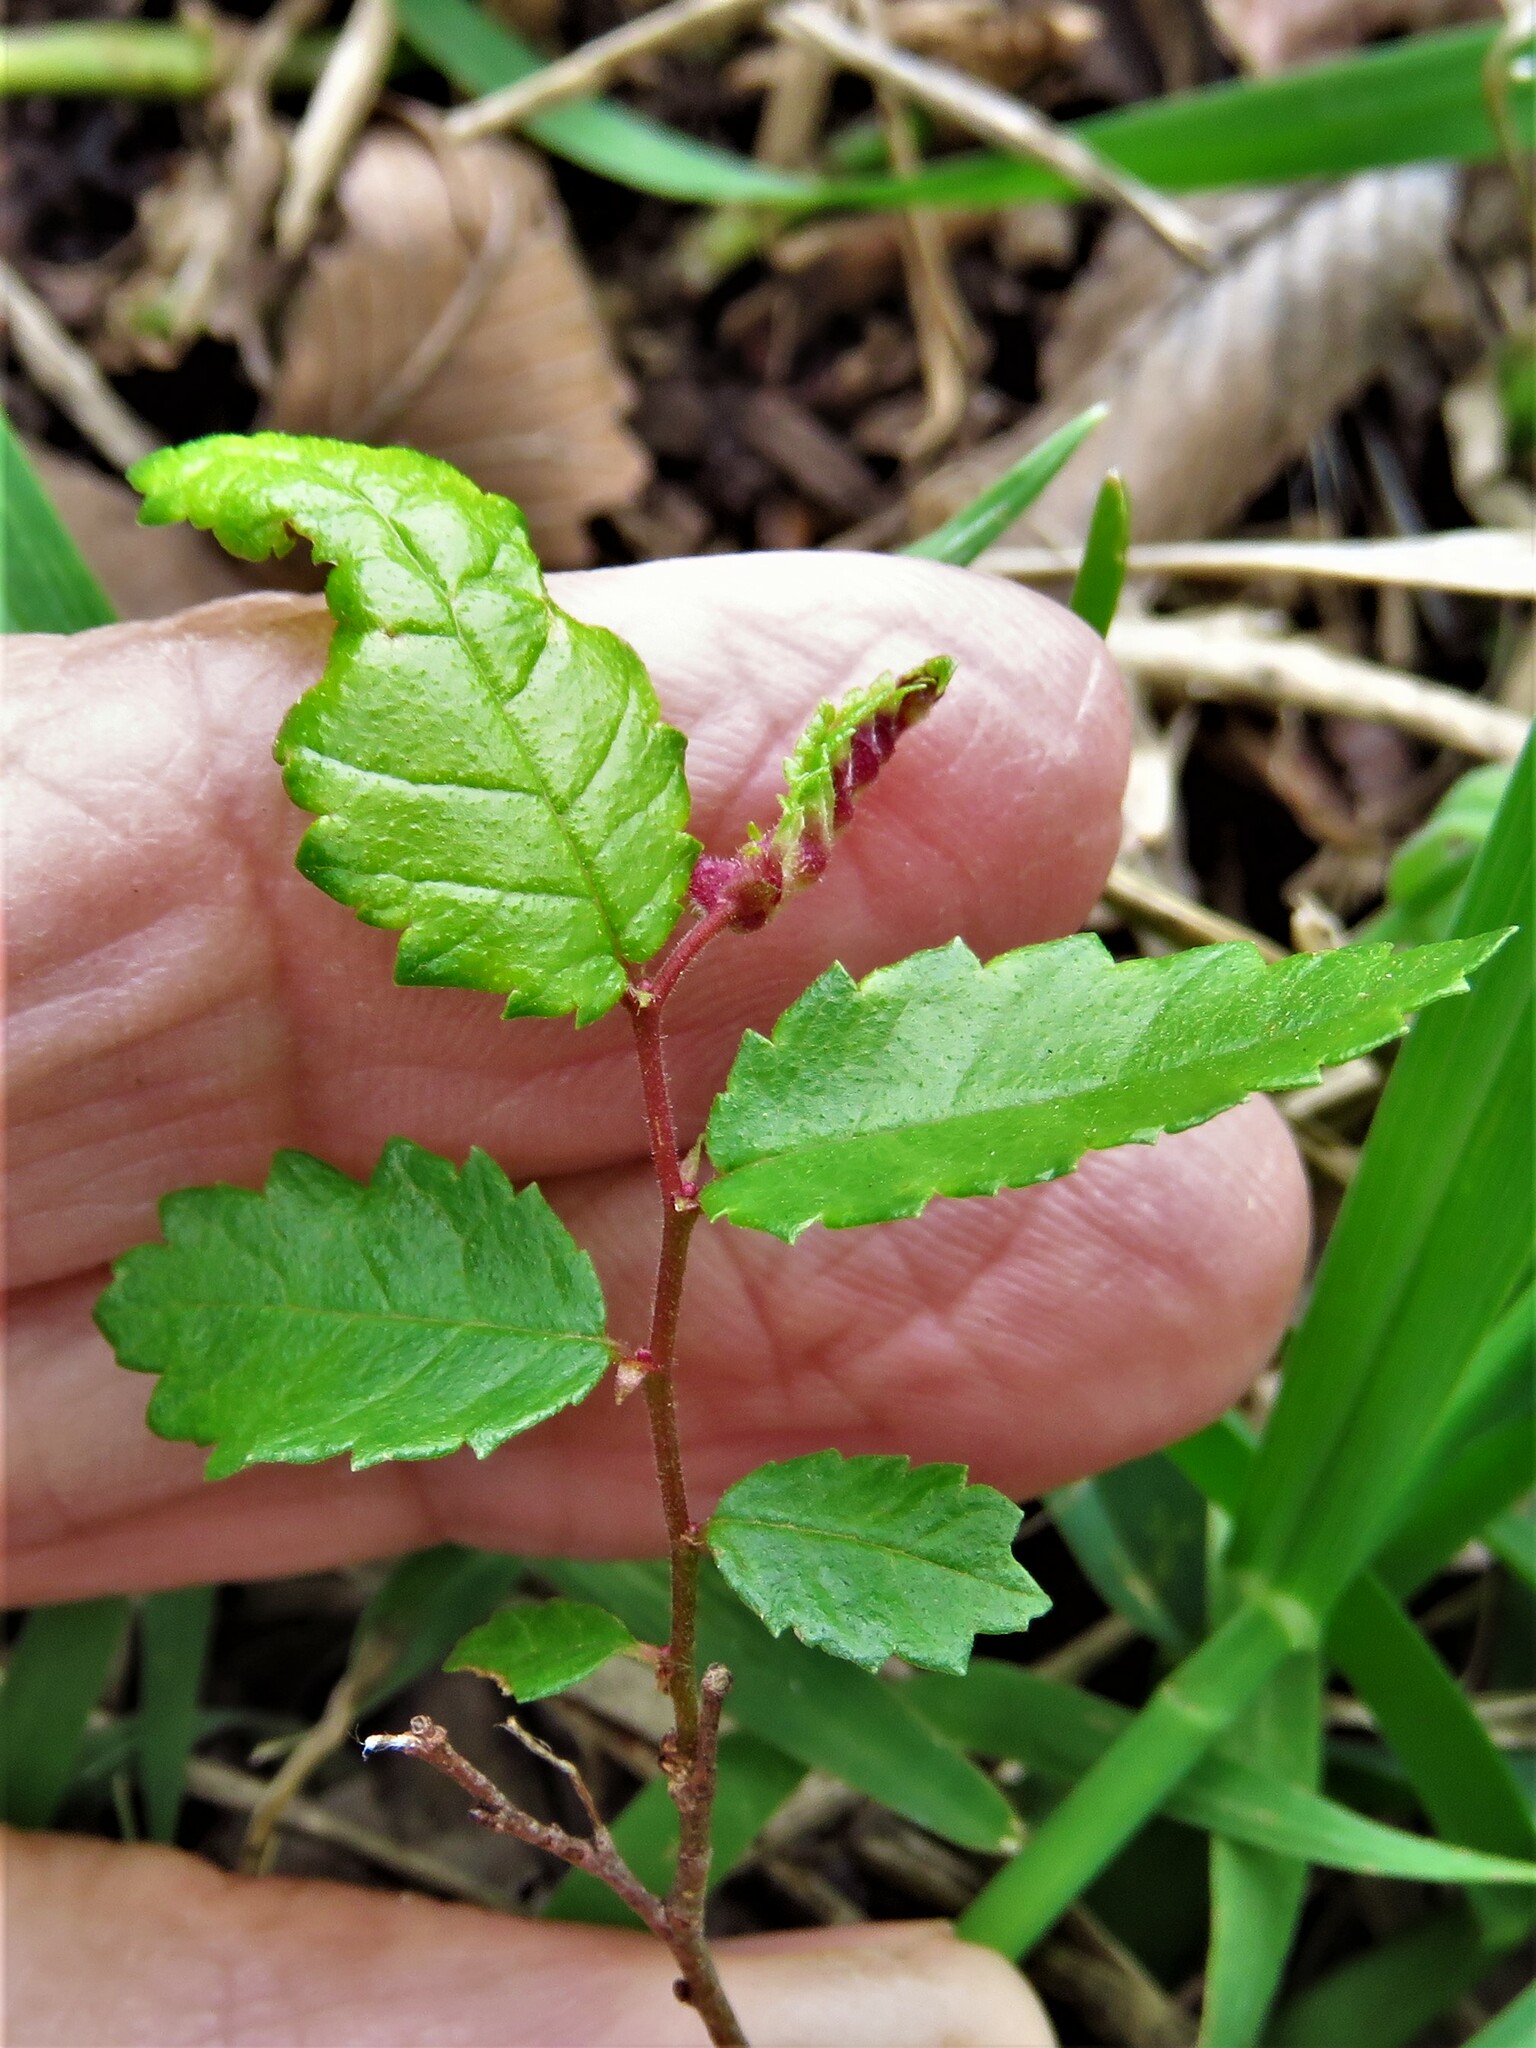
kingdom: Plantae
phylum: Tracheophyta
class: Magnoliopsida
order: Rosales
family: Ulmaceae
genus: Ulmus
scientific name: Ulmus crassifolia
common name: Basket elm
